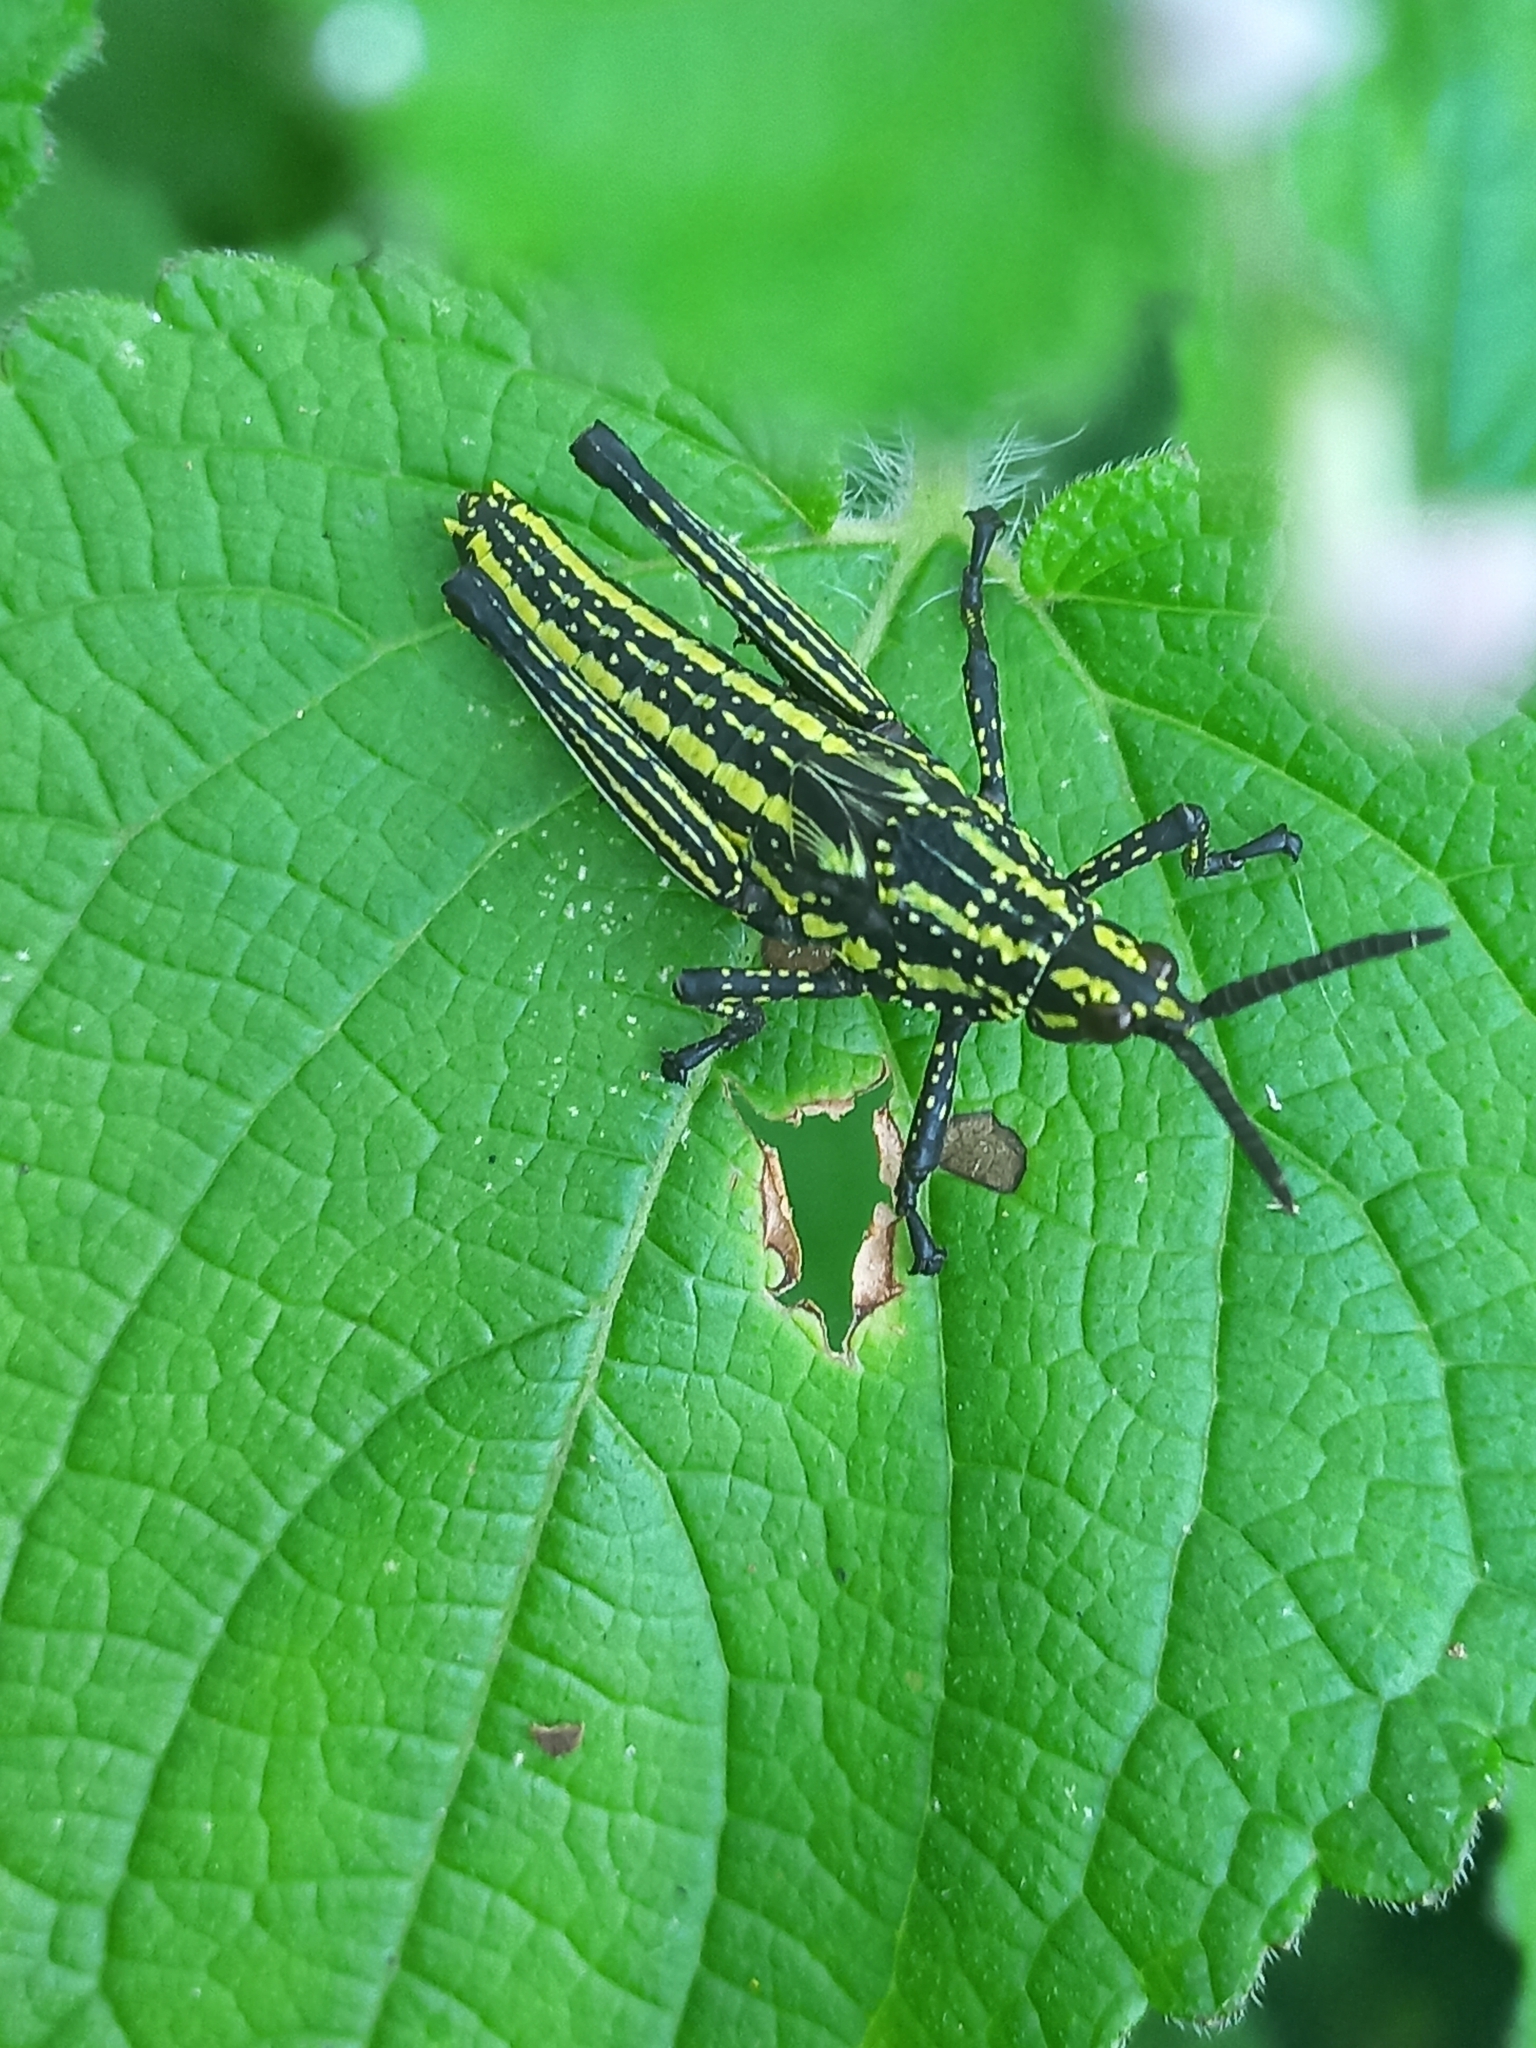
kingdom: Animalia
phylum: Arthropoda
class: Insecta
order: Orthoptera
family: Pyrgomorphidae
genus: Zonocerus
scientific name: Zonocerus elegans
